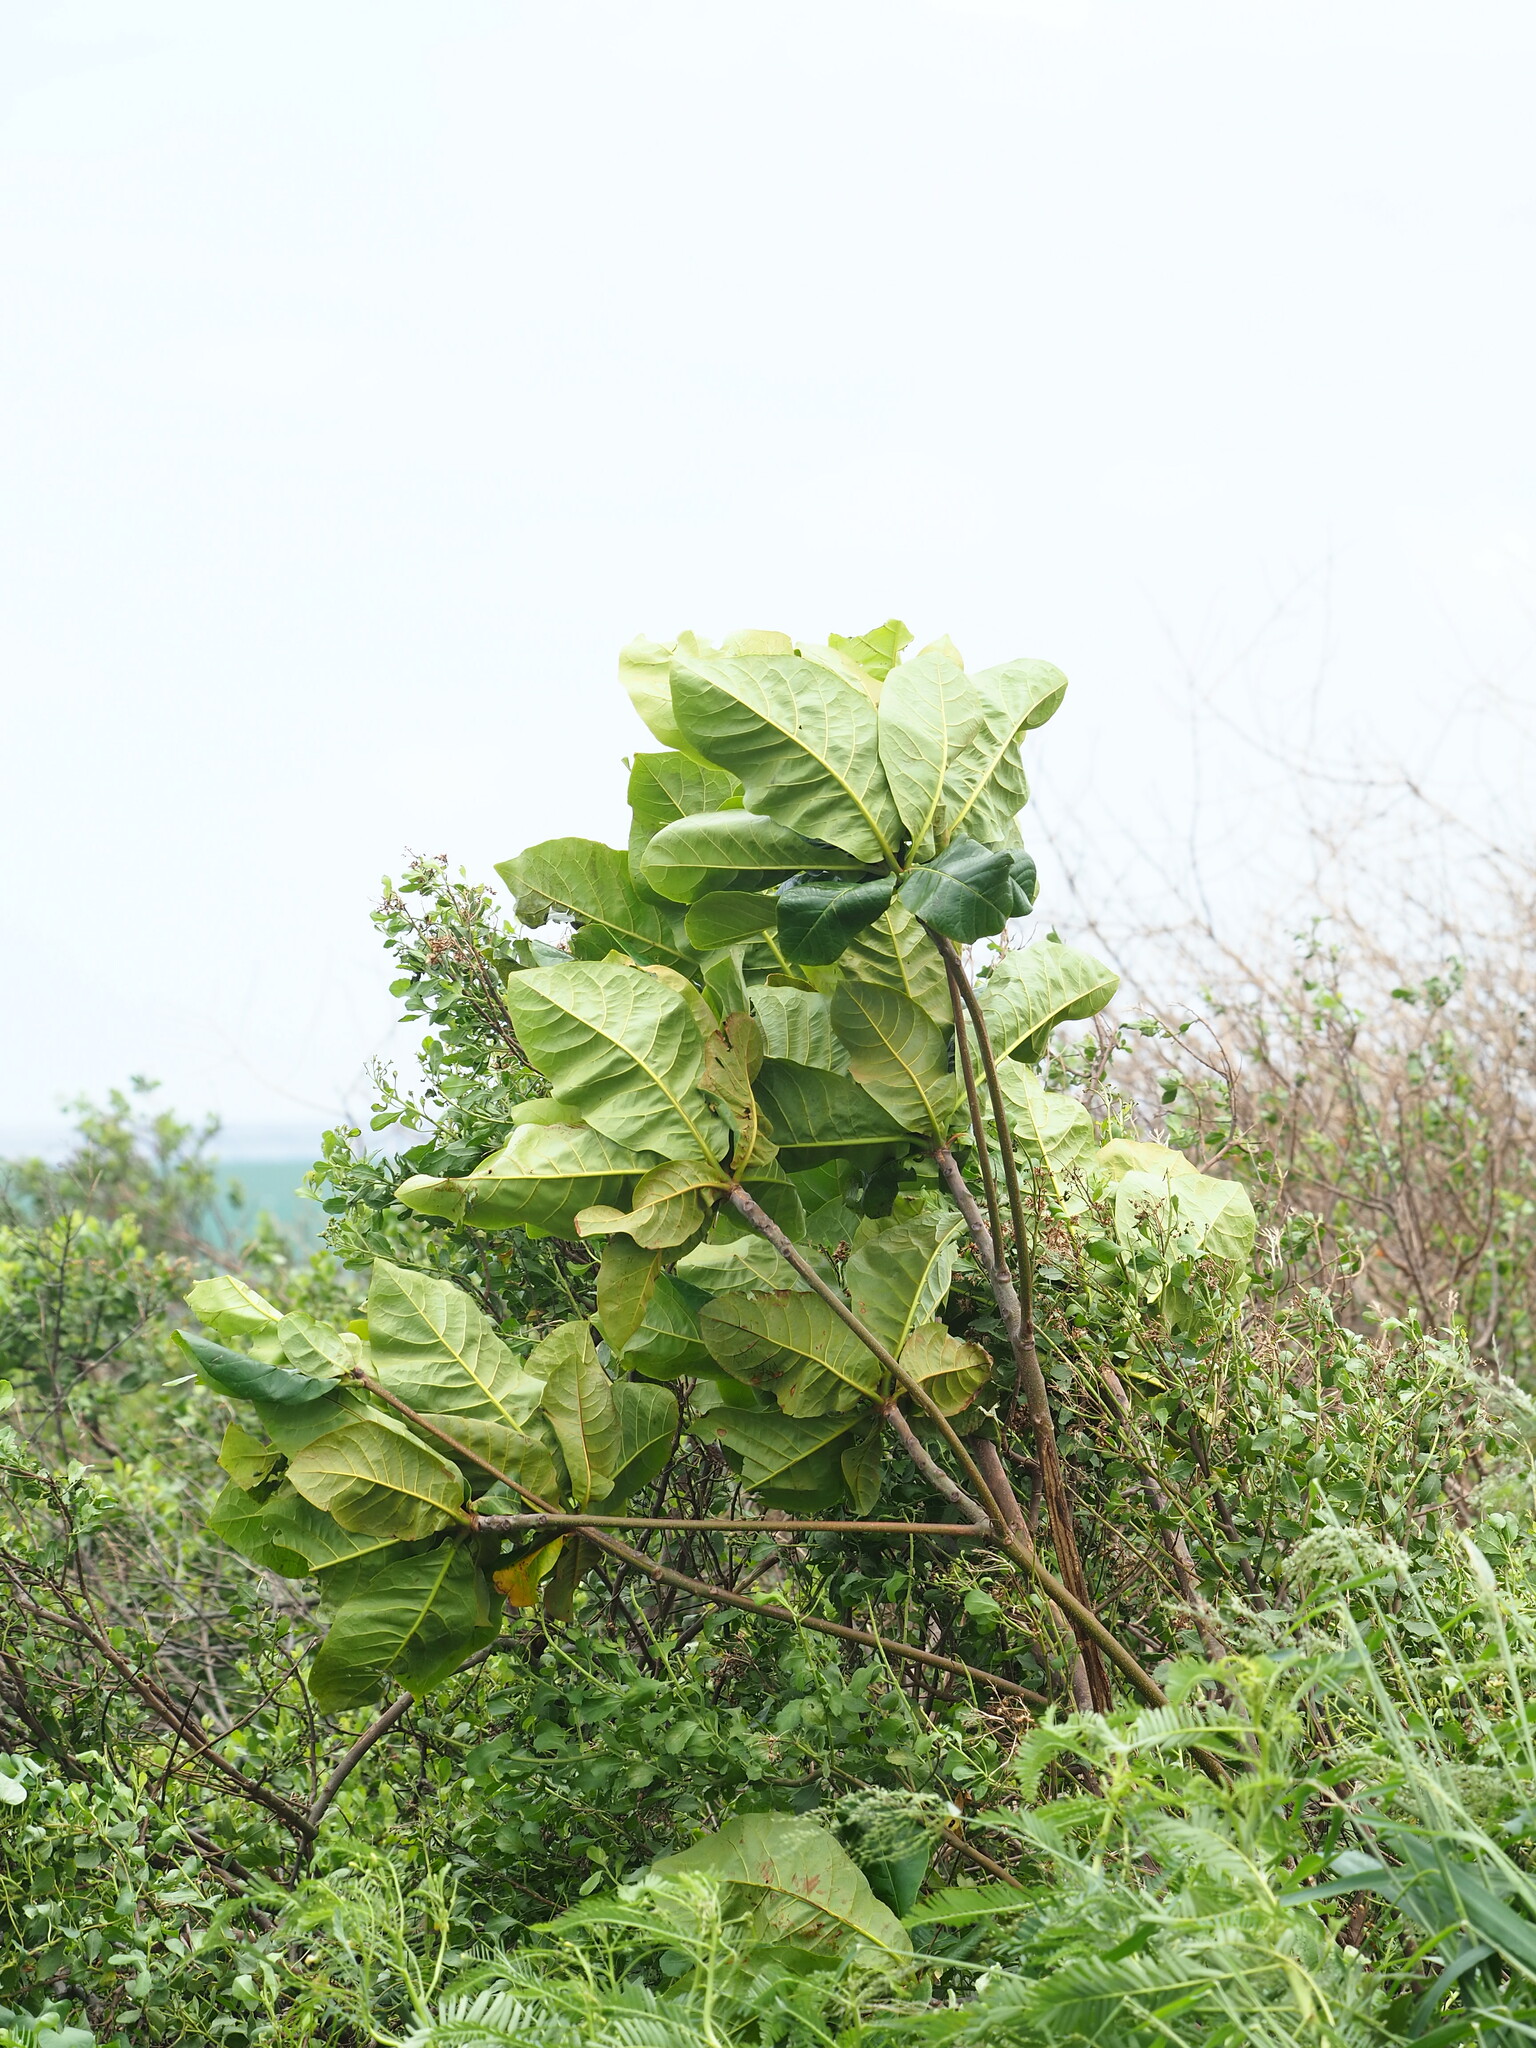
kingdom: Plantae
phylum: Tracheophyta
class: Magnoliopsida
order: Myrtales
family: Combretaceae
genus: Terminalia
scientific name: Terminalia catappa
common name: Tropical almond
